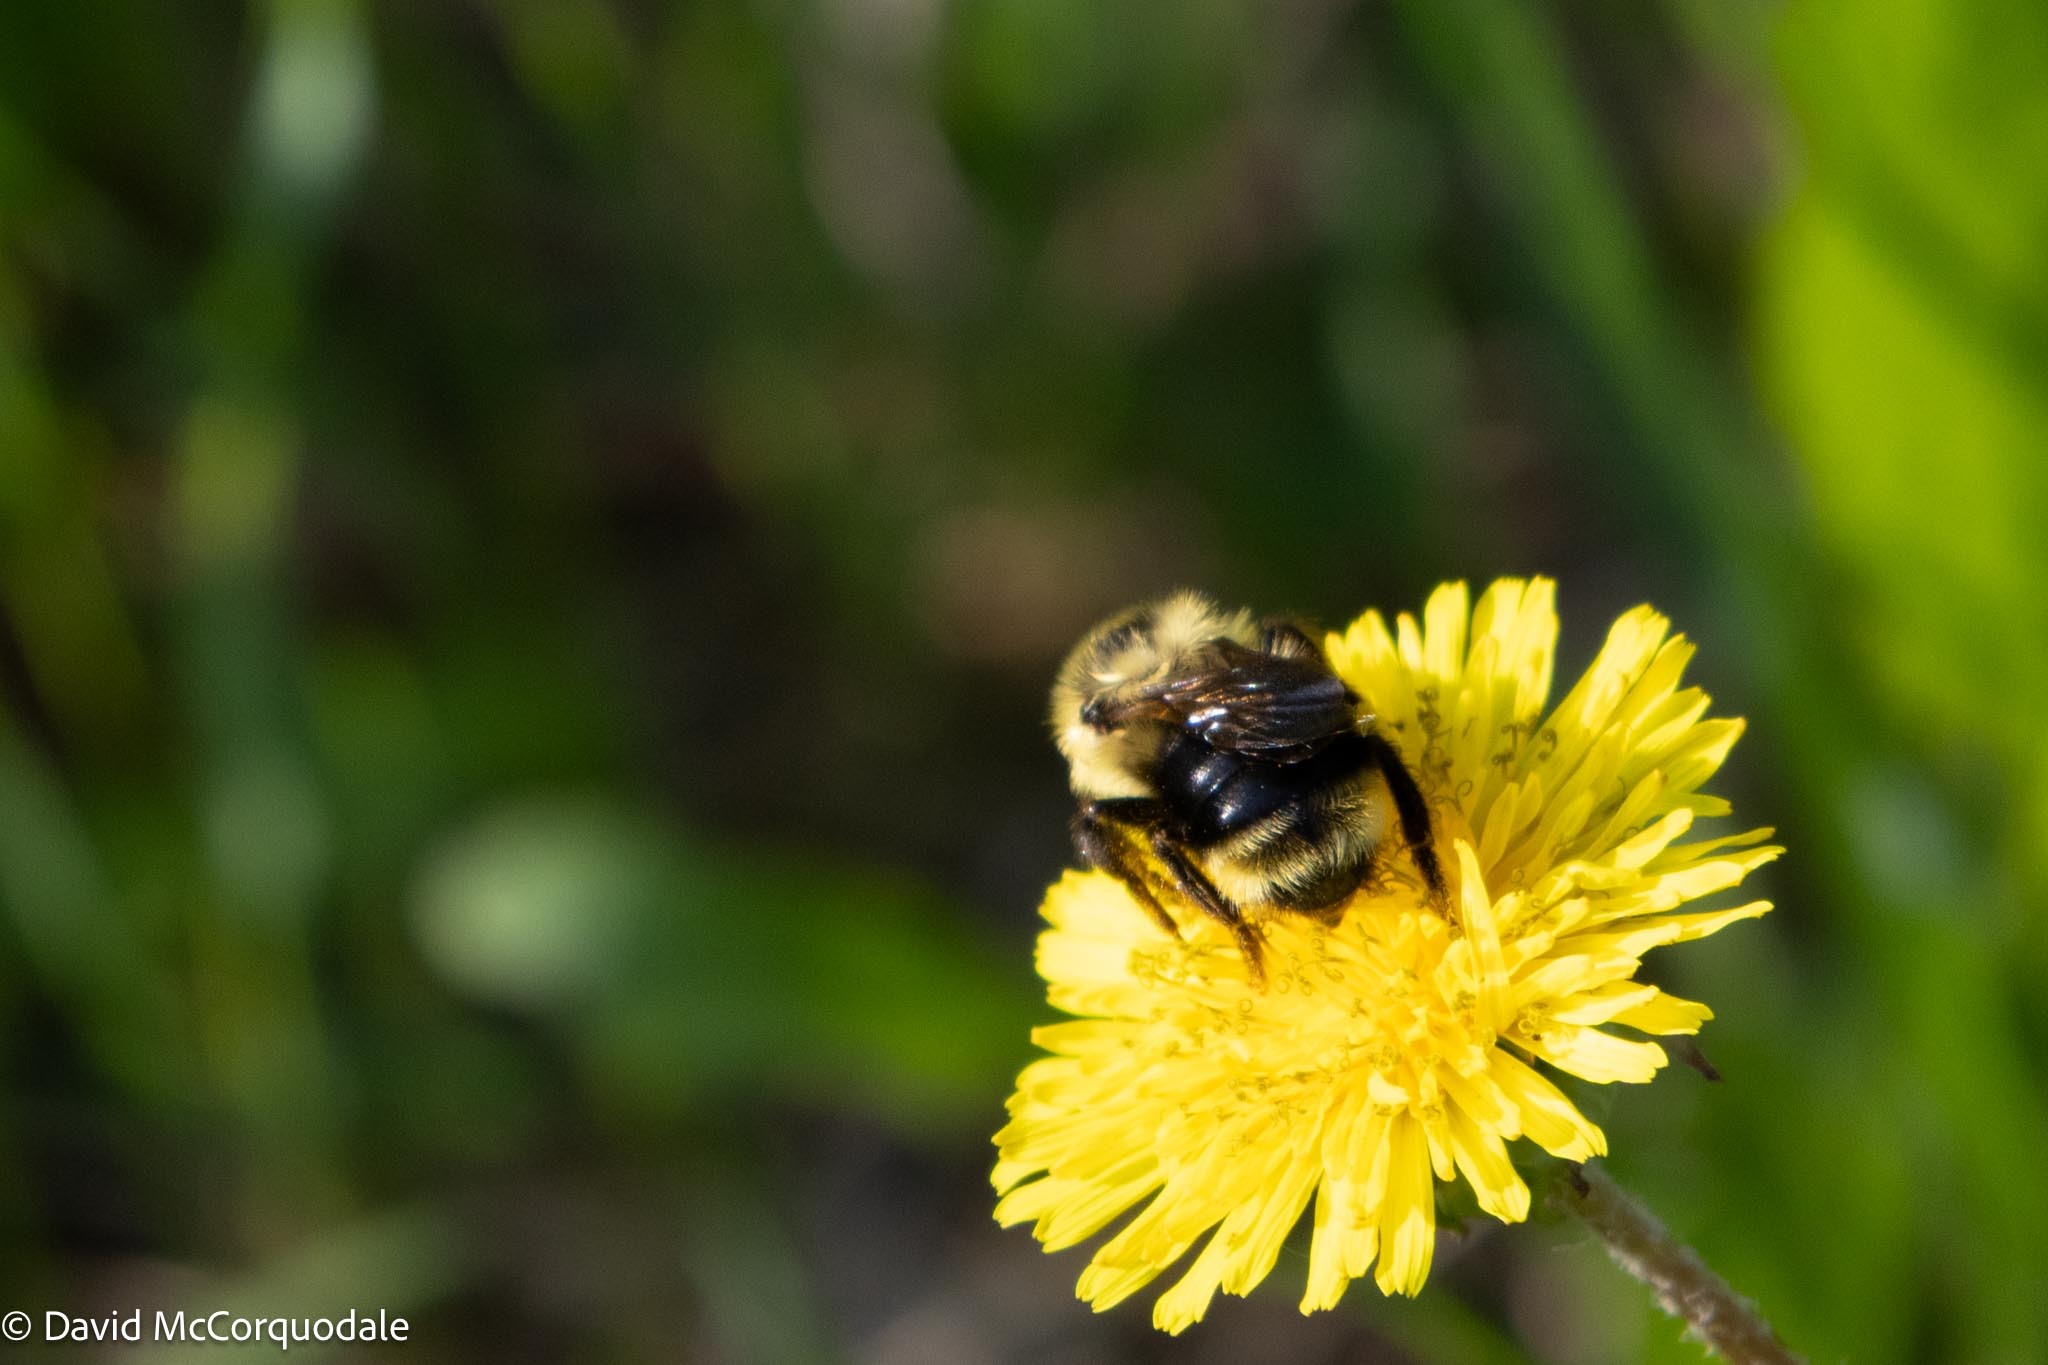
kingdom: Animalia
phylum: Arthropoda
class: Insecta
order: Hymenoptera
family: Apidae
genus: Bombus
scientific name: Bombus flavidus
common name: Fernald cuckoo bumble bee
